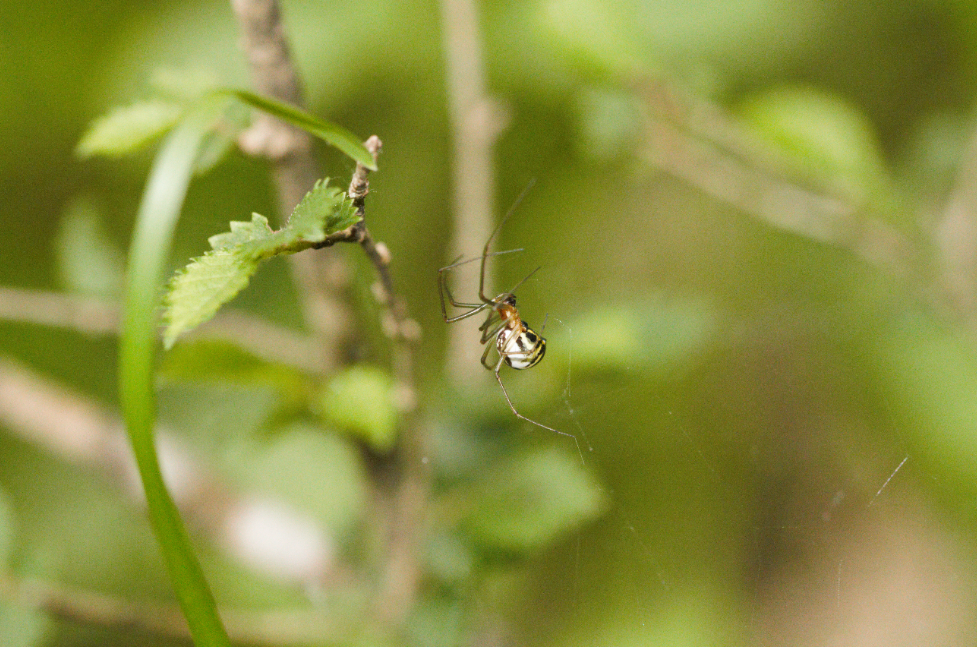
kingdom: Animalia
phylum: Arthropoda
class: Arachnida
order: Araneae
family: Linyphiidae
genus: Neriene
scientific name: Neriene radiata
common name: Filmy dome spider
